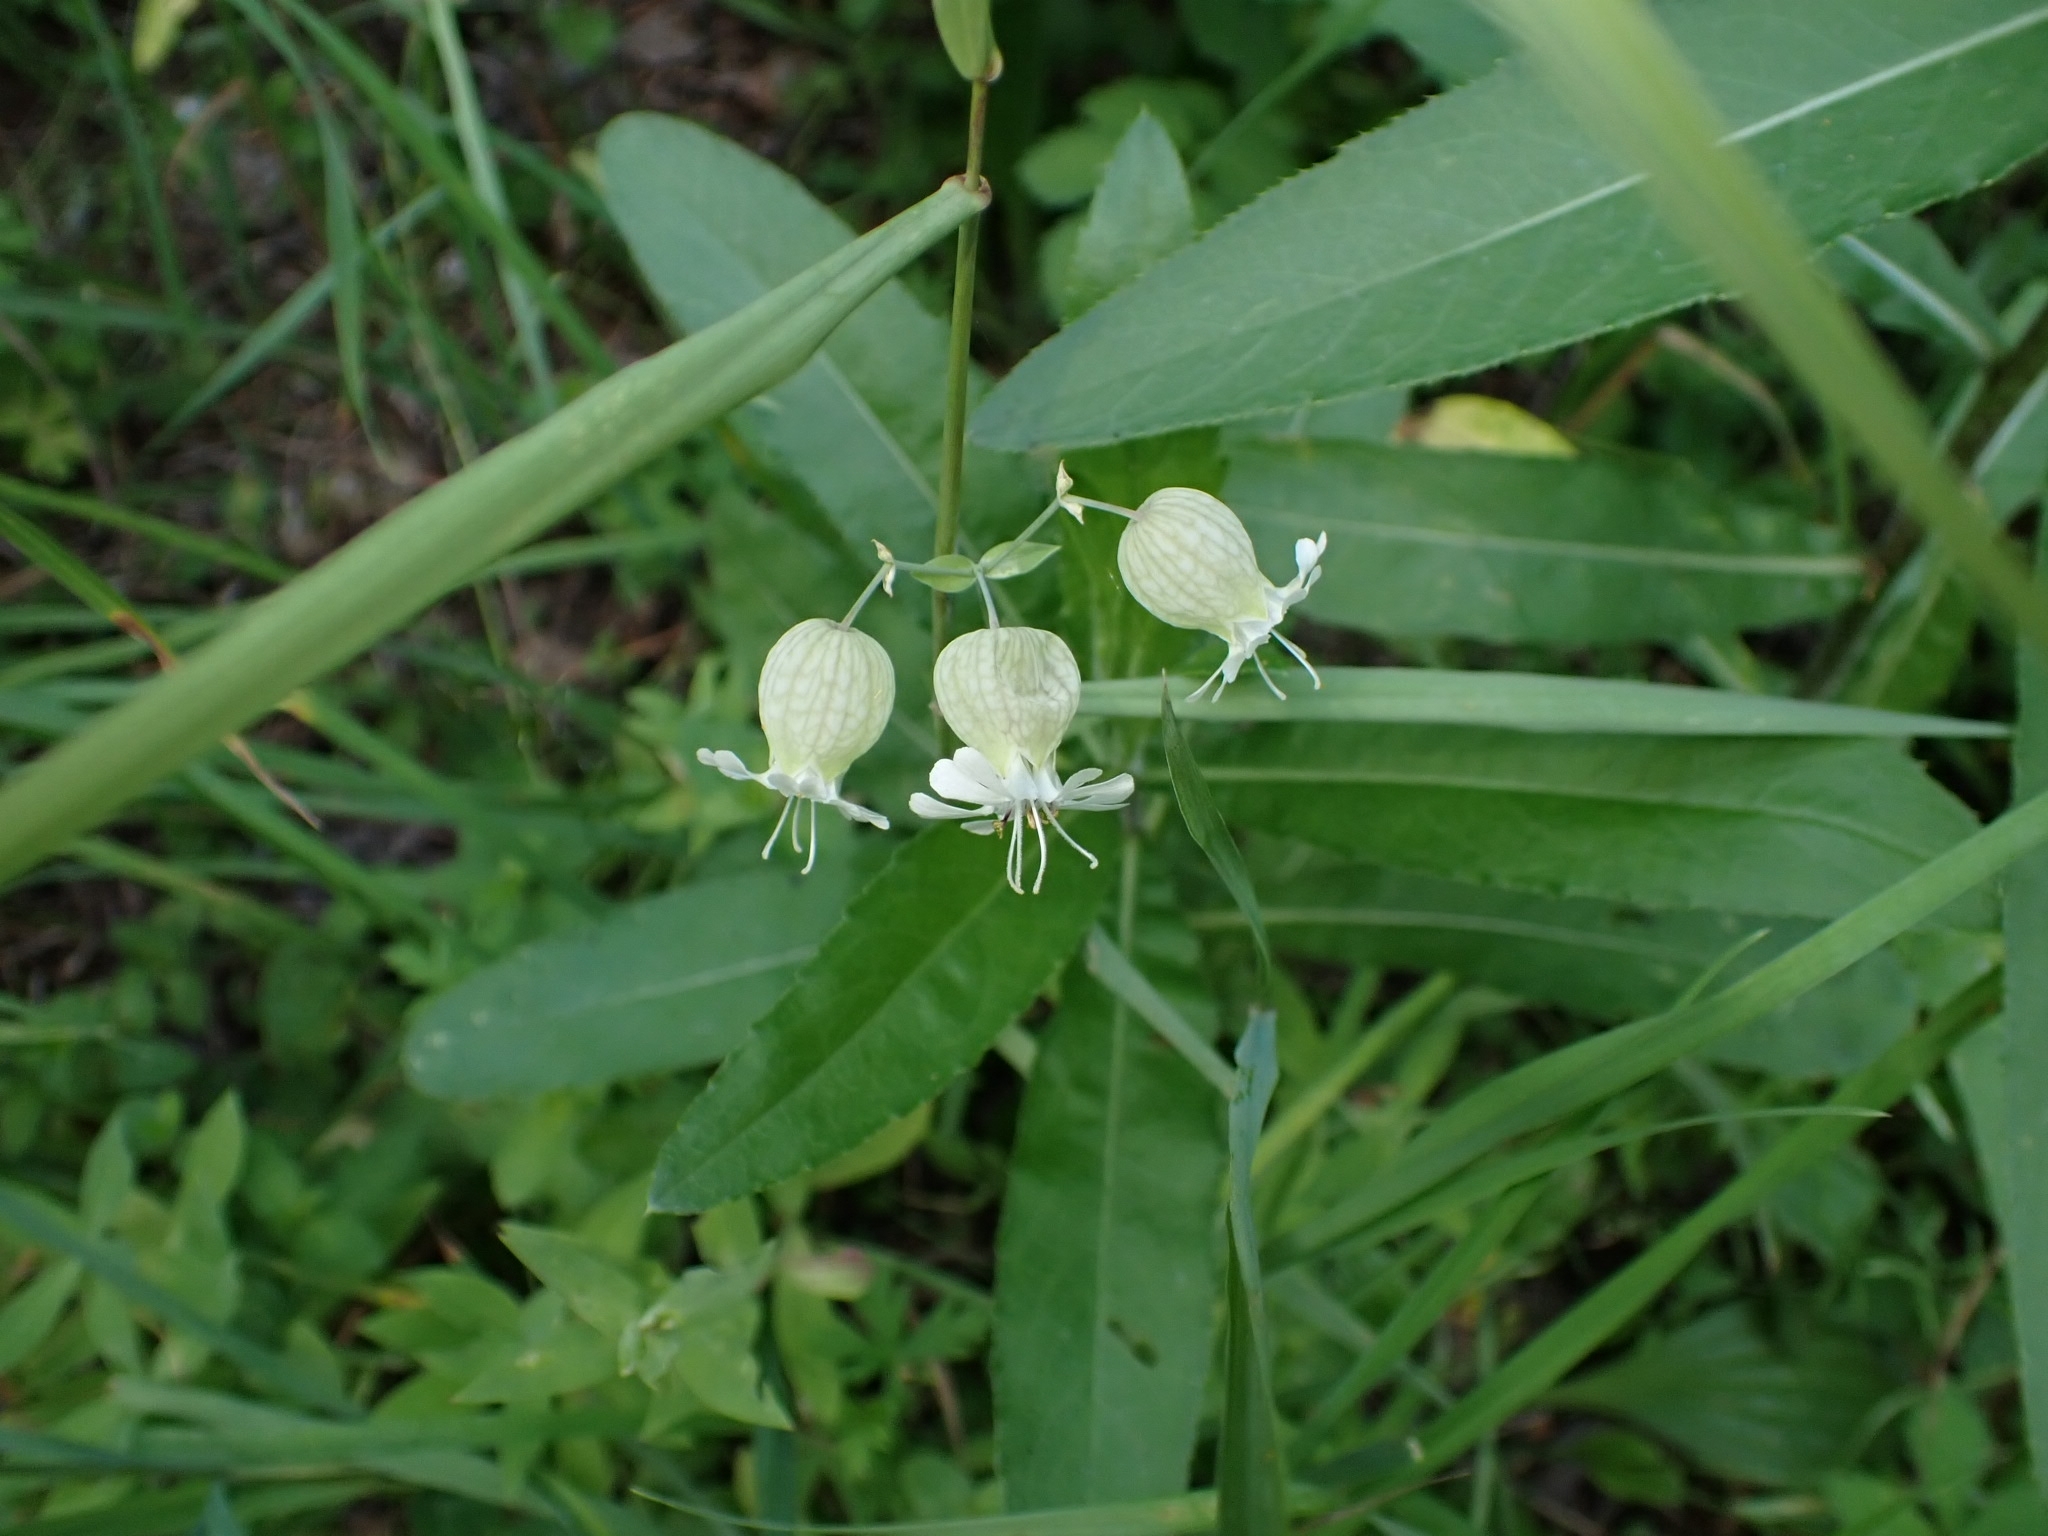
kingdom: Plantae
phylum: Tracheophyta
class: Magnoliopsida
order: Caryophyllales
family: Caryophyllaceae
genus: Silene
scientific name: Silene vulgaris
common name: Bladder campion
